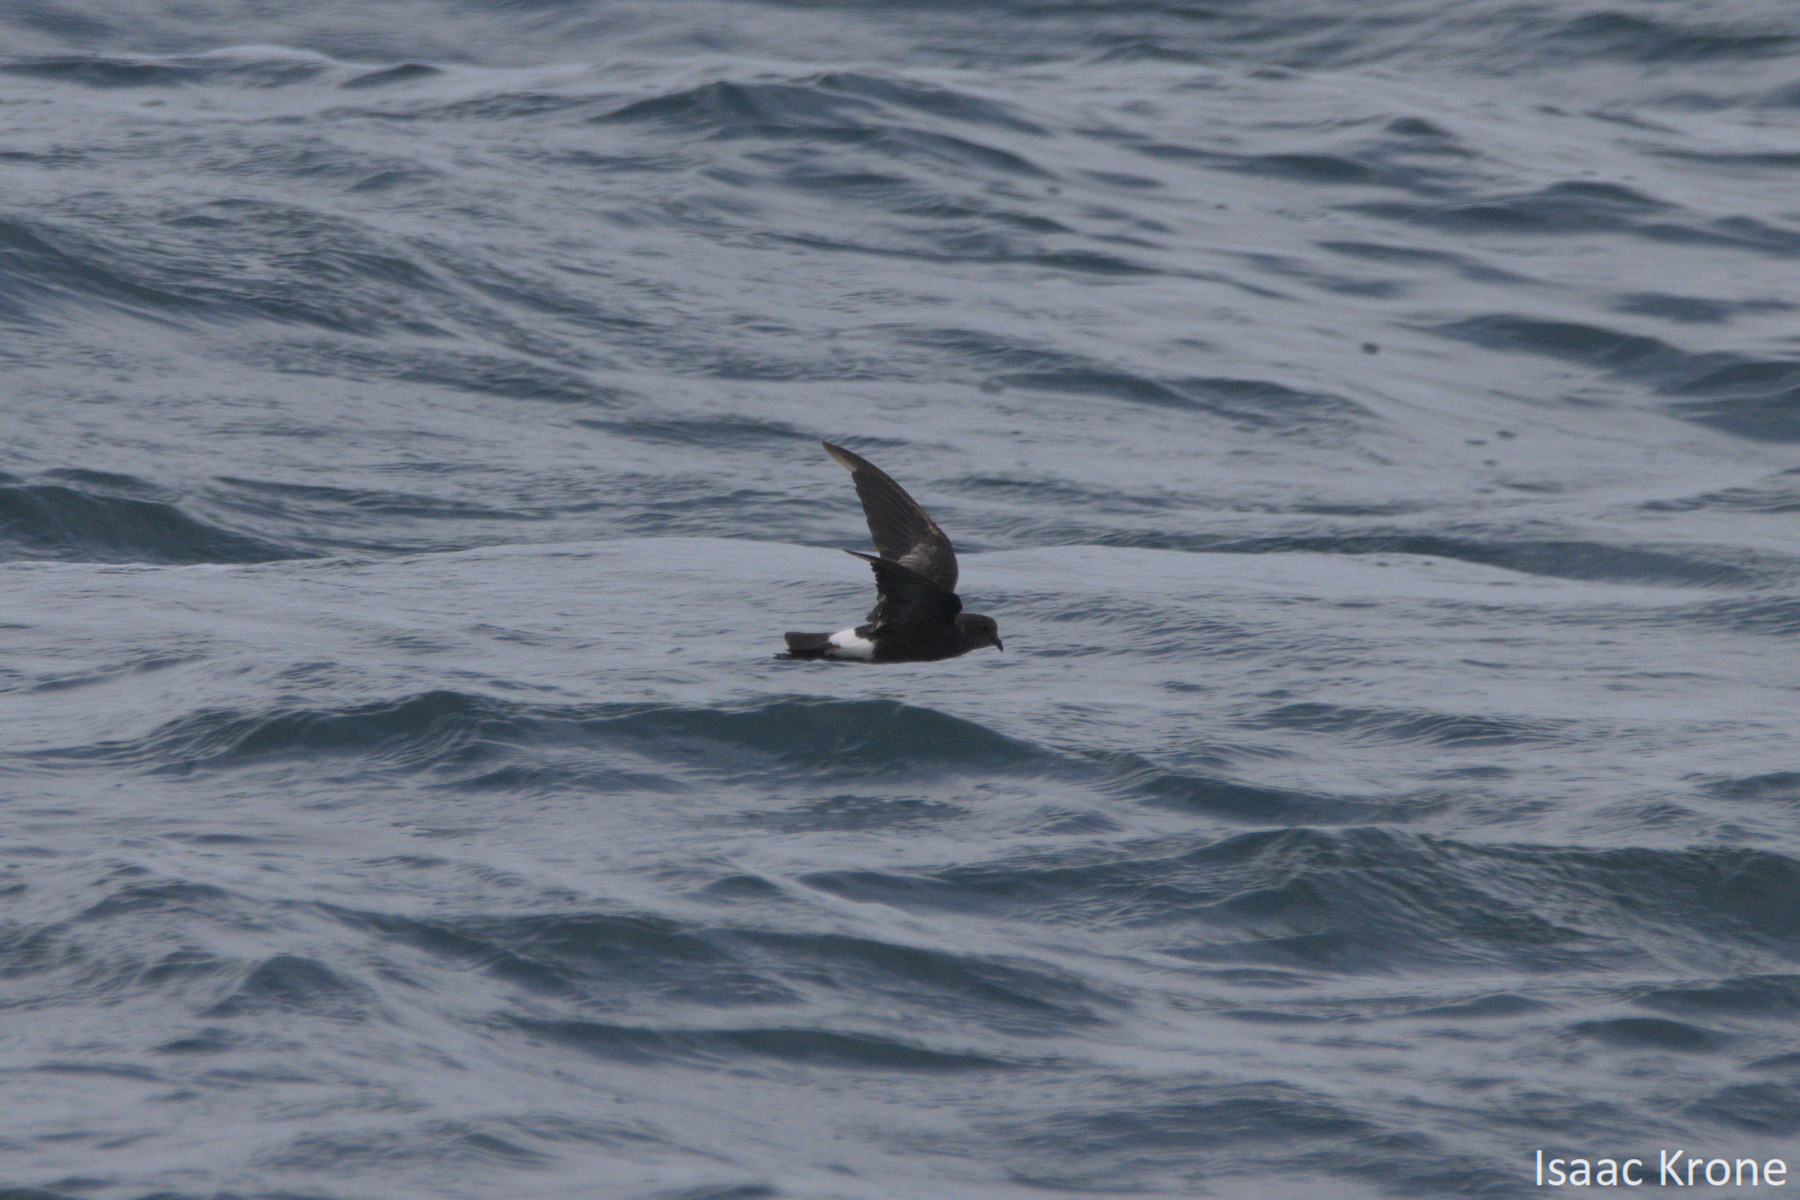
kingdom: Animalia
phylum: Chordata
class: Aves
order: Procellariiformes
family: Hydrobatidae
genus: Oceanites
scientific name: Oceanites oceanicus
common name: Wilson's storm petrel
